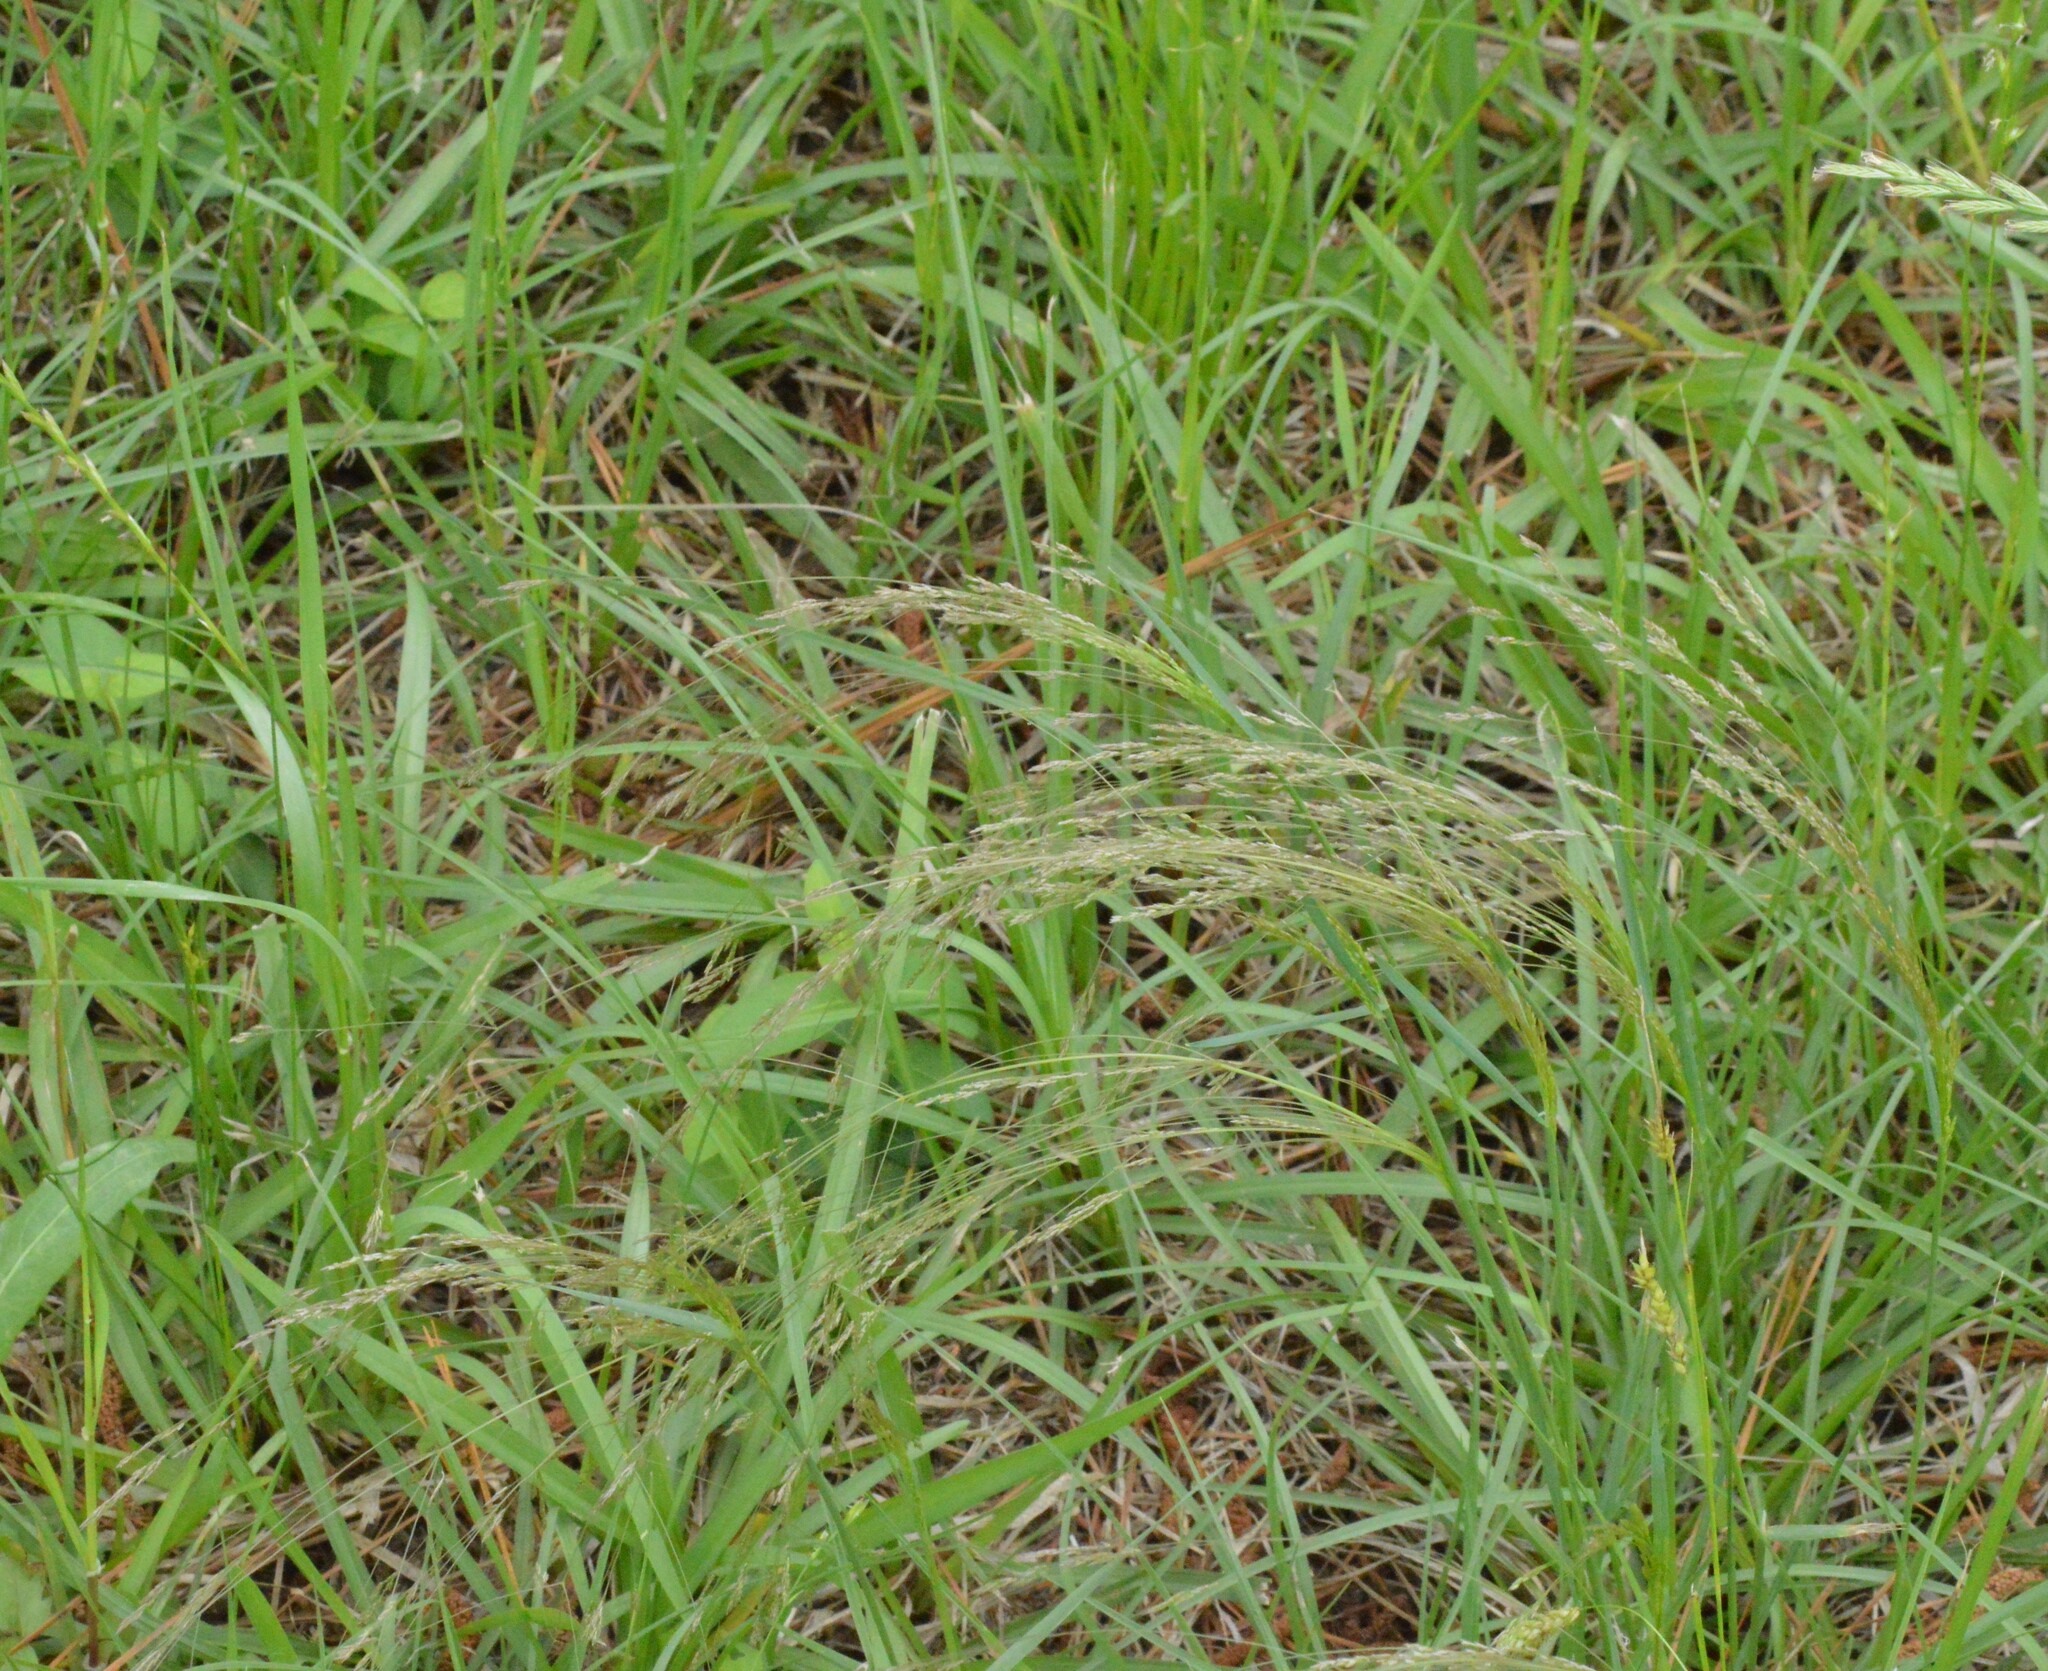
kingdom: Plantae
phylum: Tracheophyta
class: Liliopsida
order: Poales
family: Poaceae
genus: Agrostis
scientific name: Agrostis hyemalis
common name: Small bent
